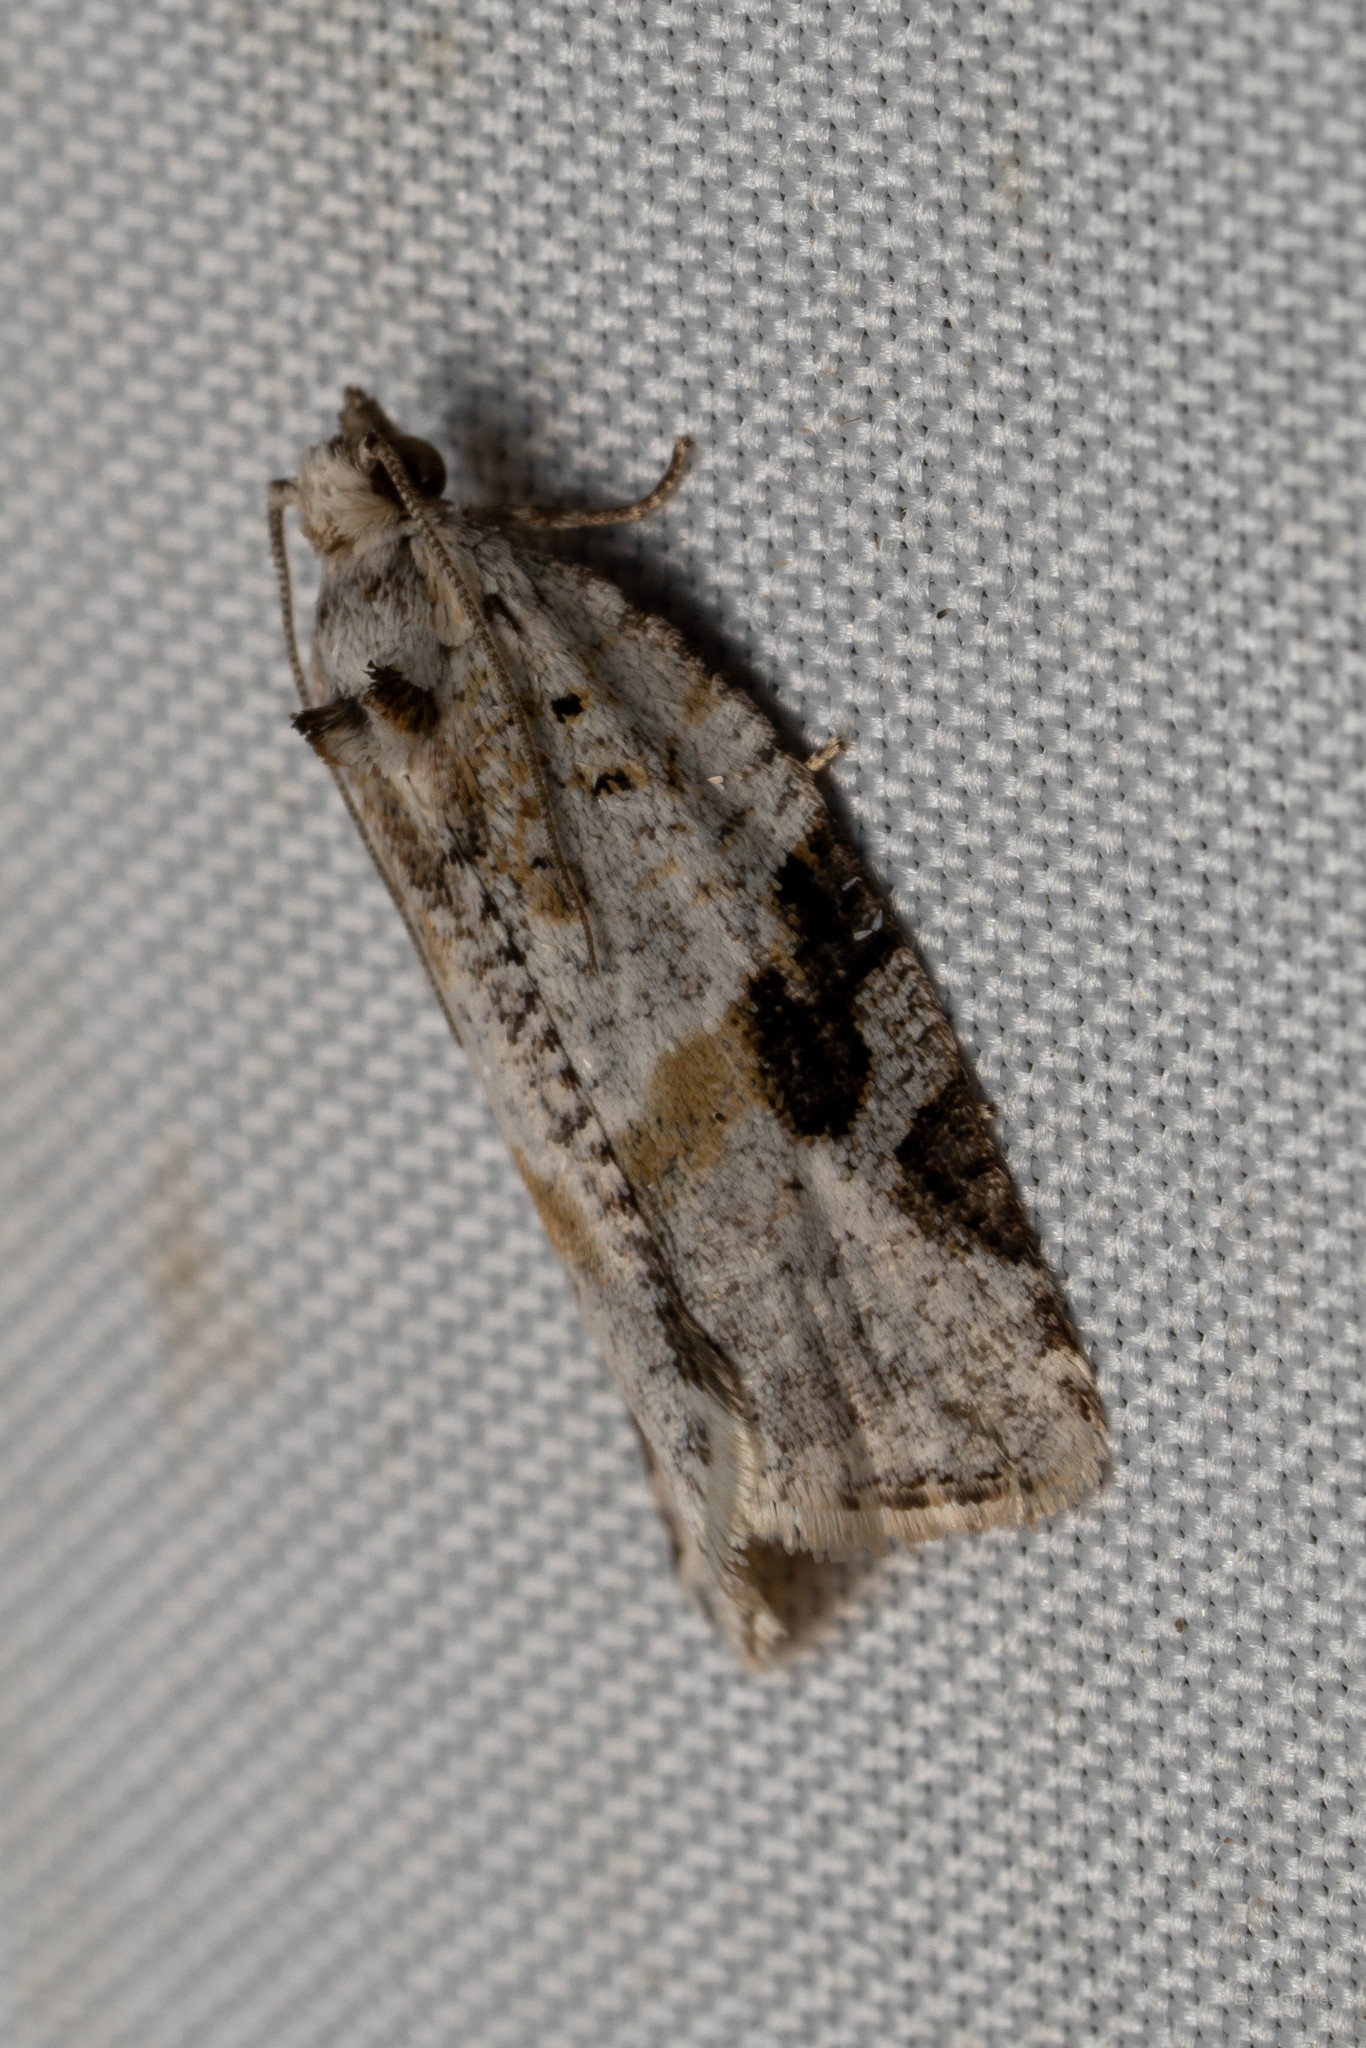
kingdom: Animalia
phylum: Arthropoda
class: Insecta
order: Lepidoptera
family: Tortricidae
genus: Argyrotaenia
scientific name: Argyrotaenia mariana
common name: Gray-banded leafroller moth
